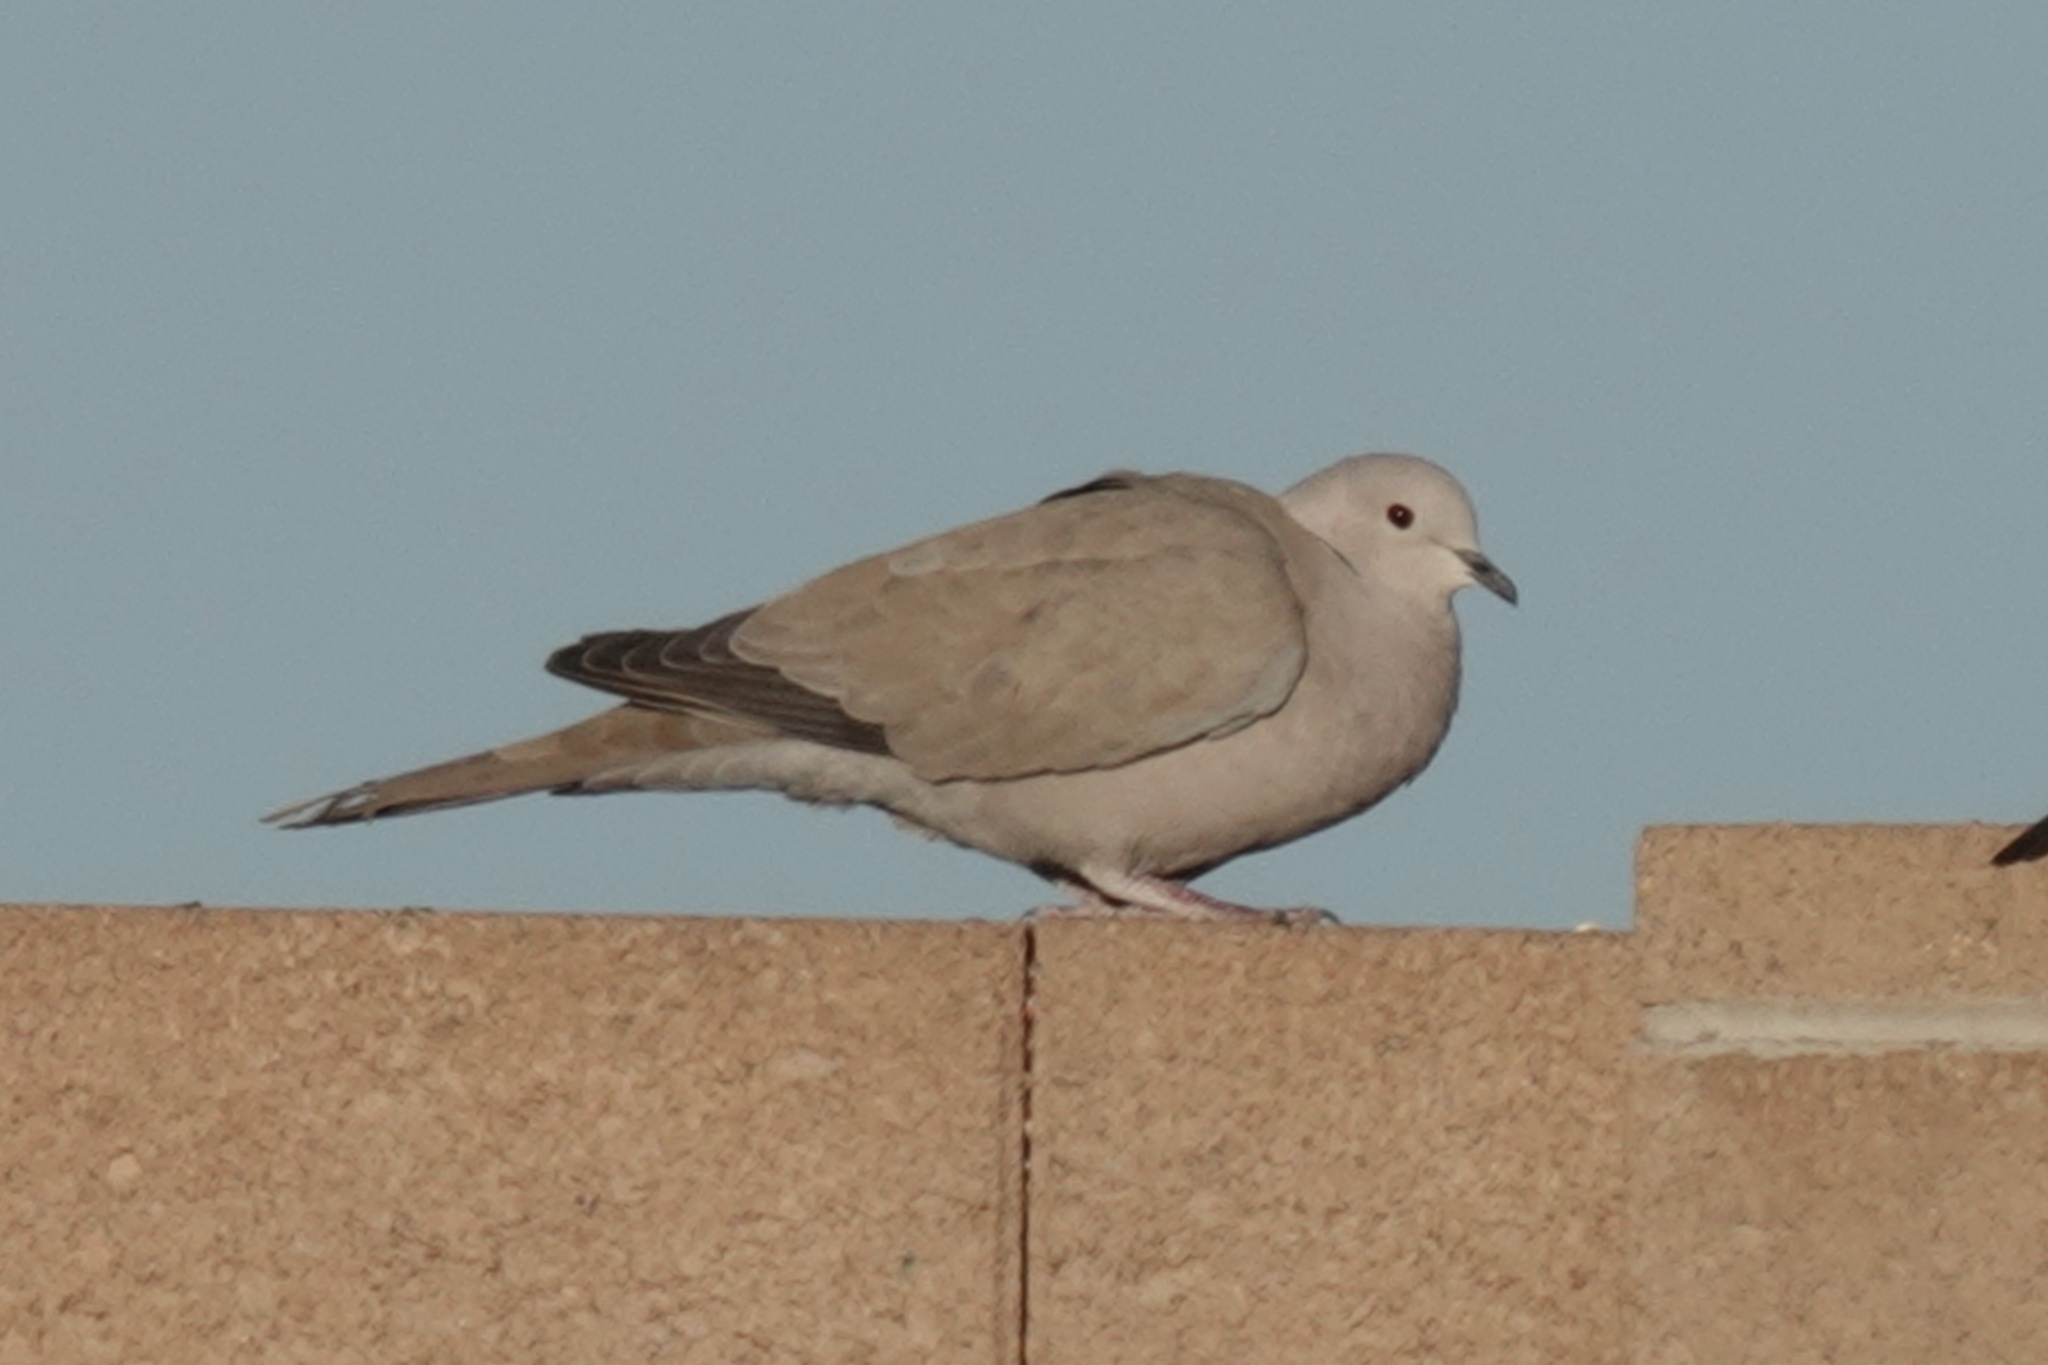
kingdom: Animalia
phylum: Chordata
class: Aves
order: Columbiformes
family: Columbidae
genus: Streptopelia
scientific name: Streptopelia decaocto
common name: Eurasian collared dove
